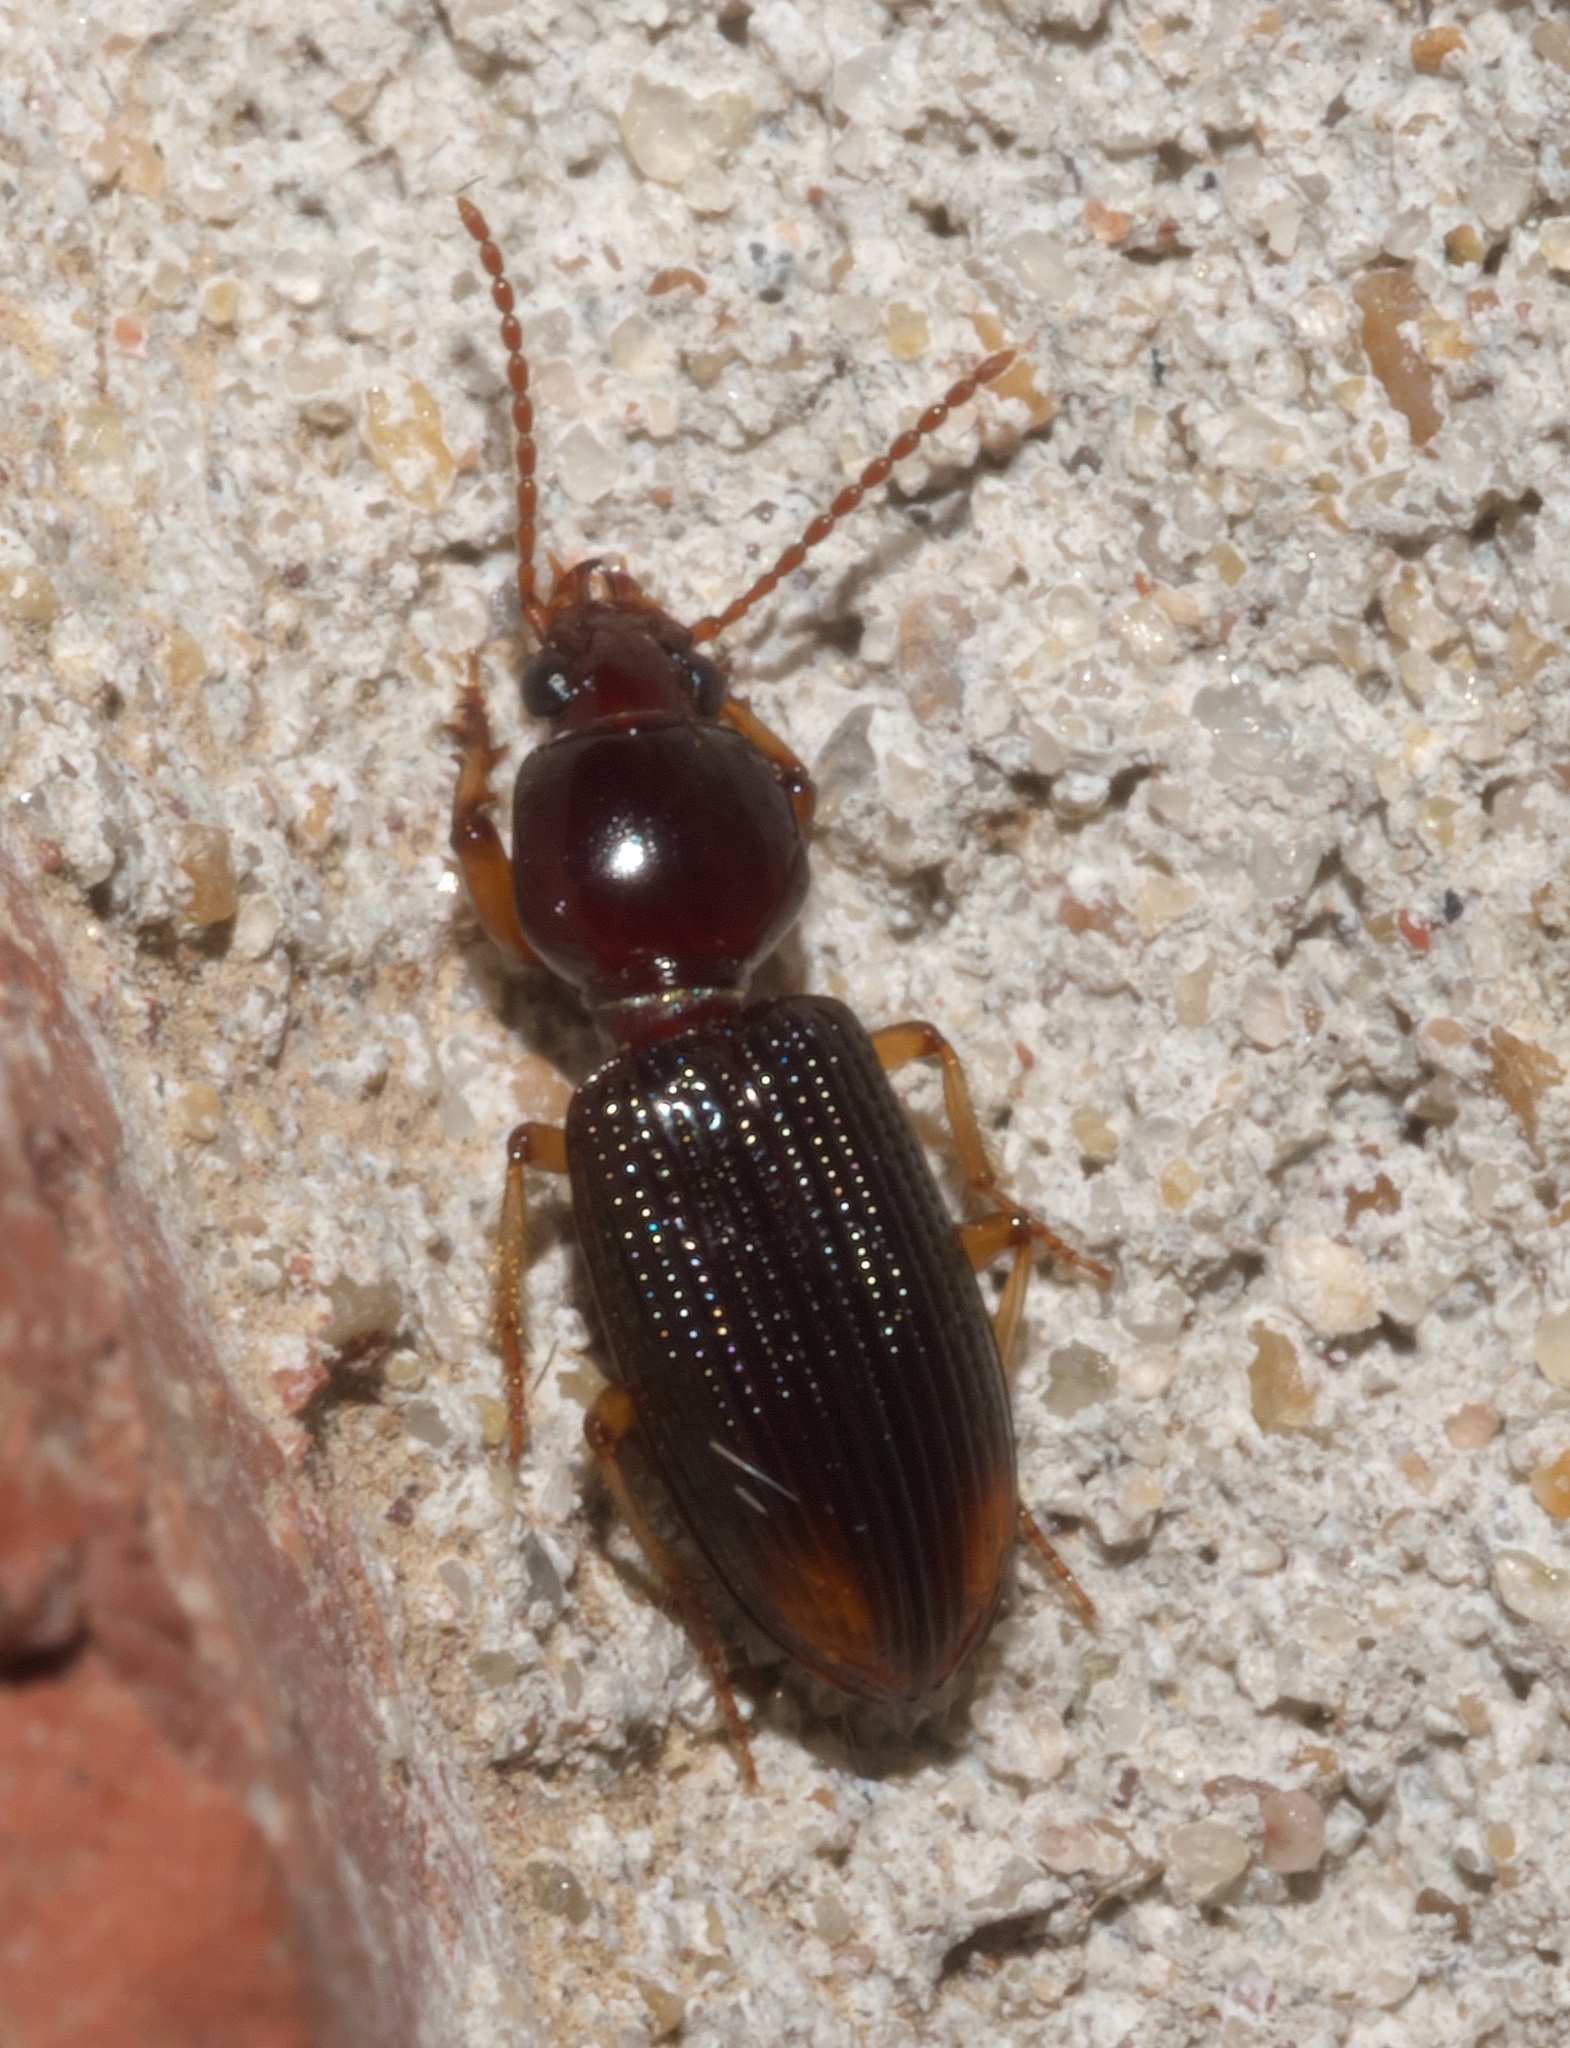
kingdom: Animalia
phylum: Arthropoda
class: Insecta
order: Coleoptera
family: Carabidae
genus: Aspidoglossa
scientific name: Aspidoglossa subangulata
